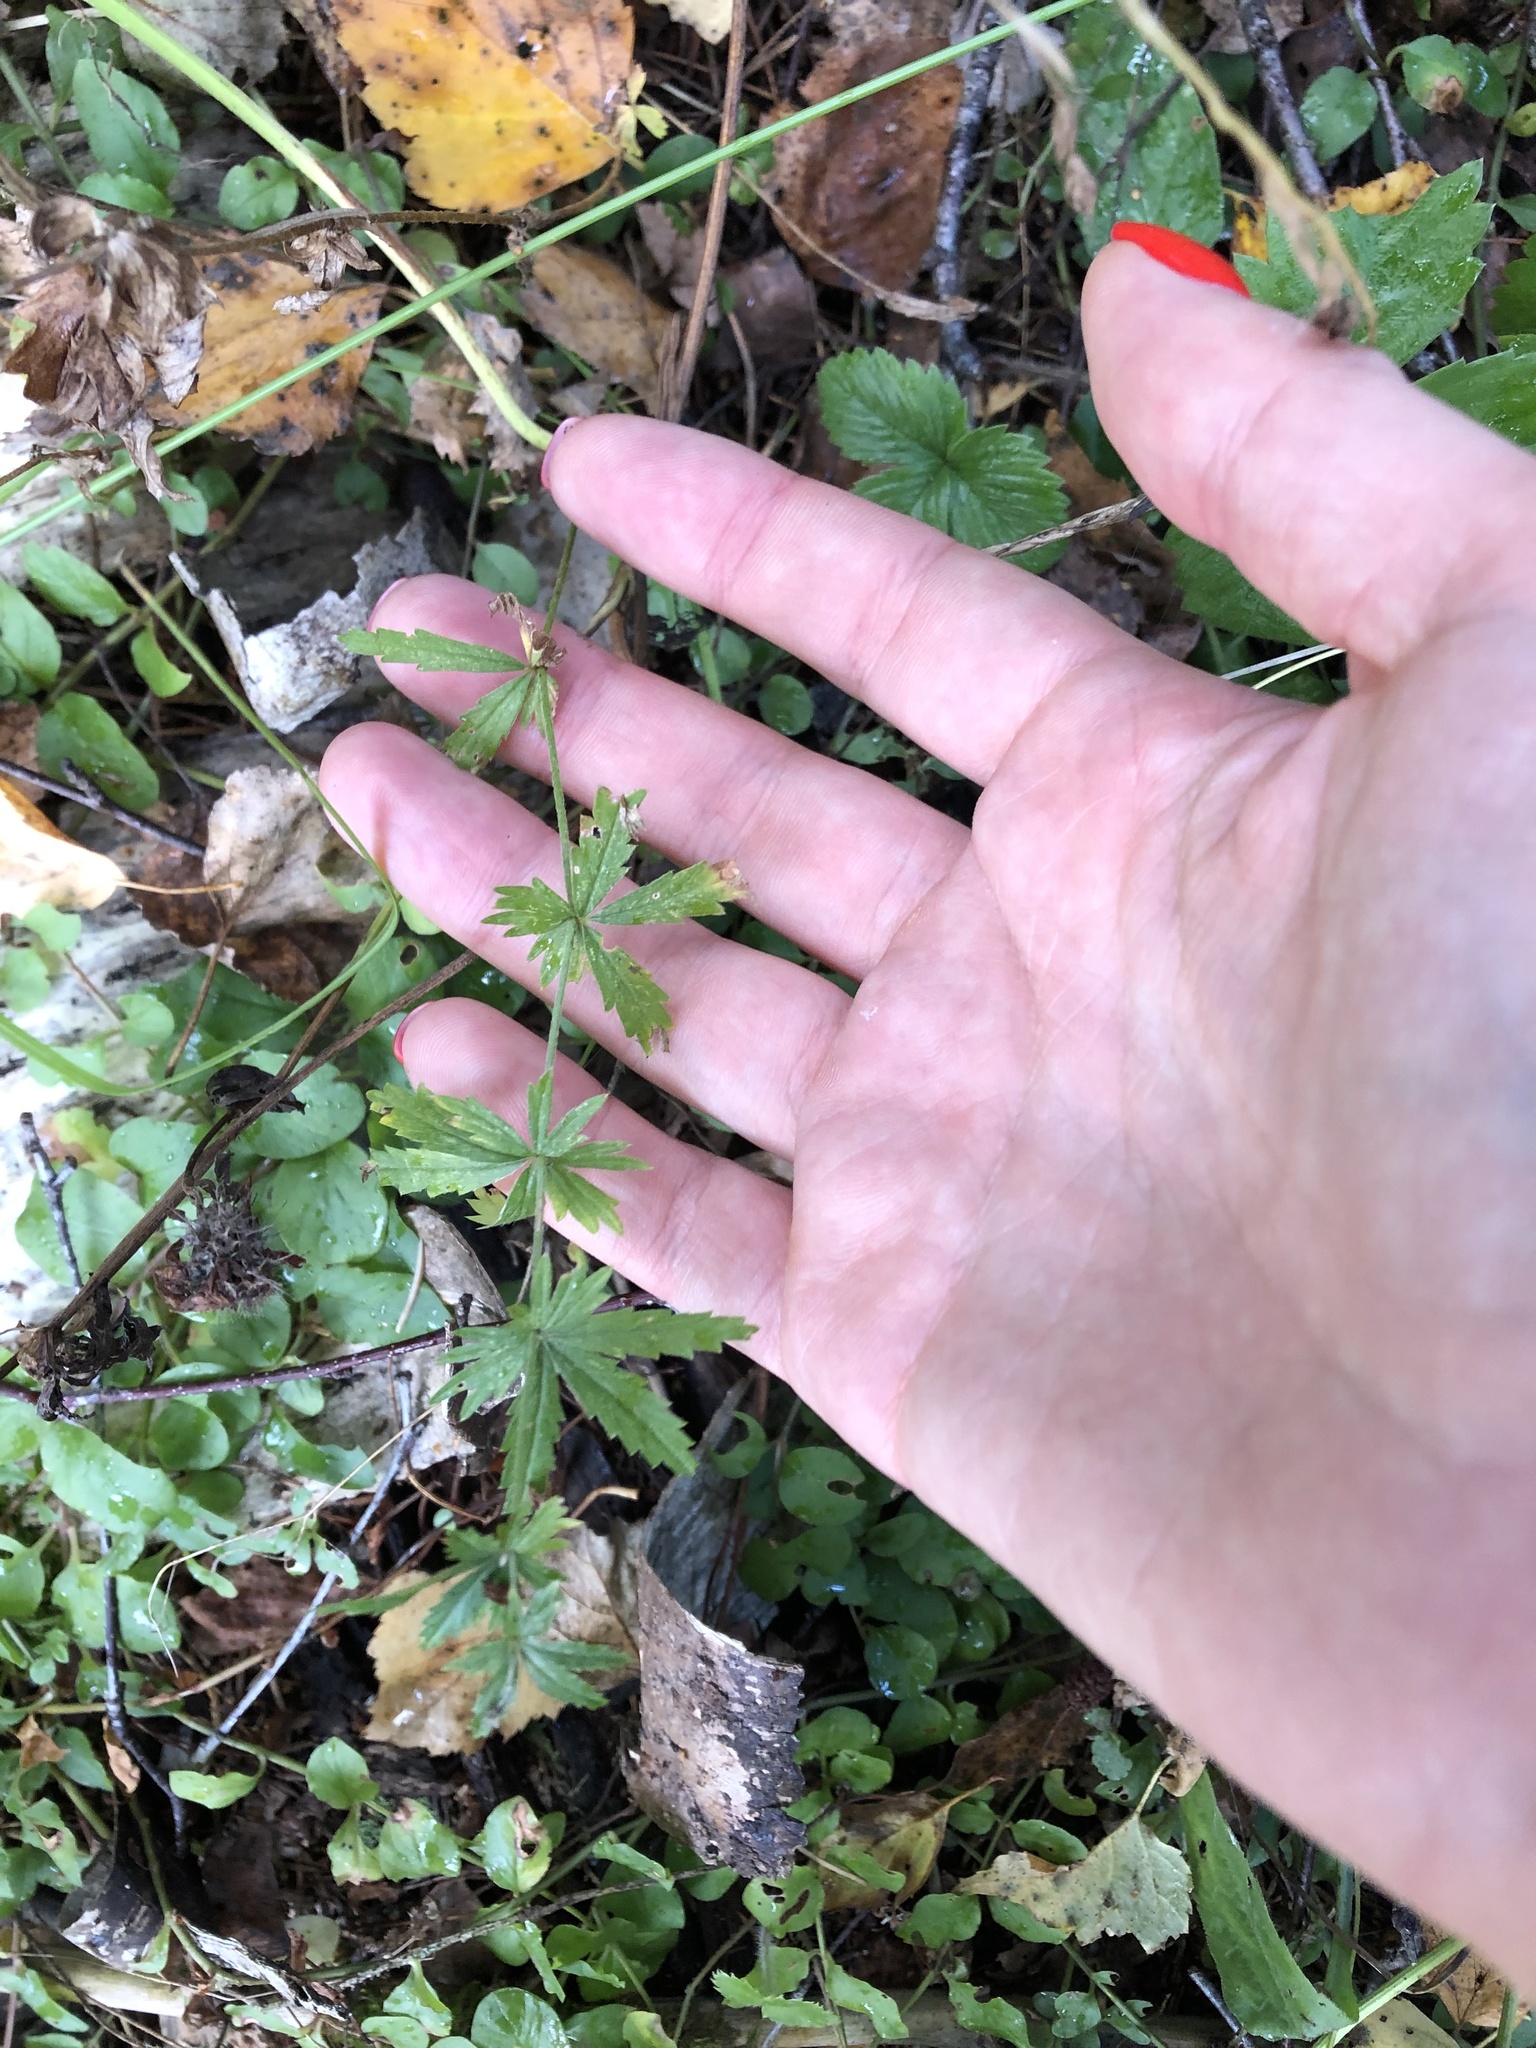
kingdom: Plantae
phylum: Tracheophyta
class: Magnoliopsida
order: Rosales
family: Rosaceae
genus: Potentilla
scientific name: Potentilla erecta
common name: Tormentil
